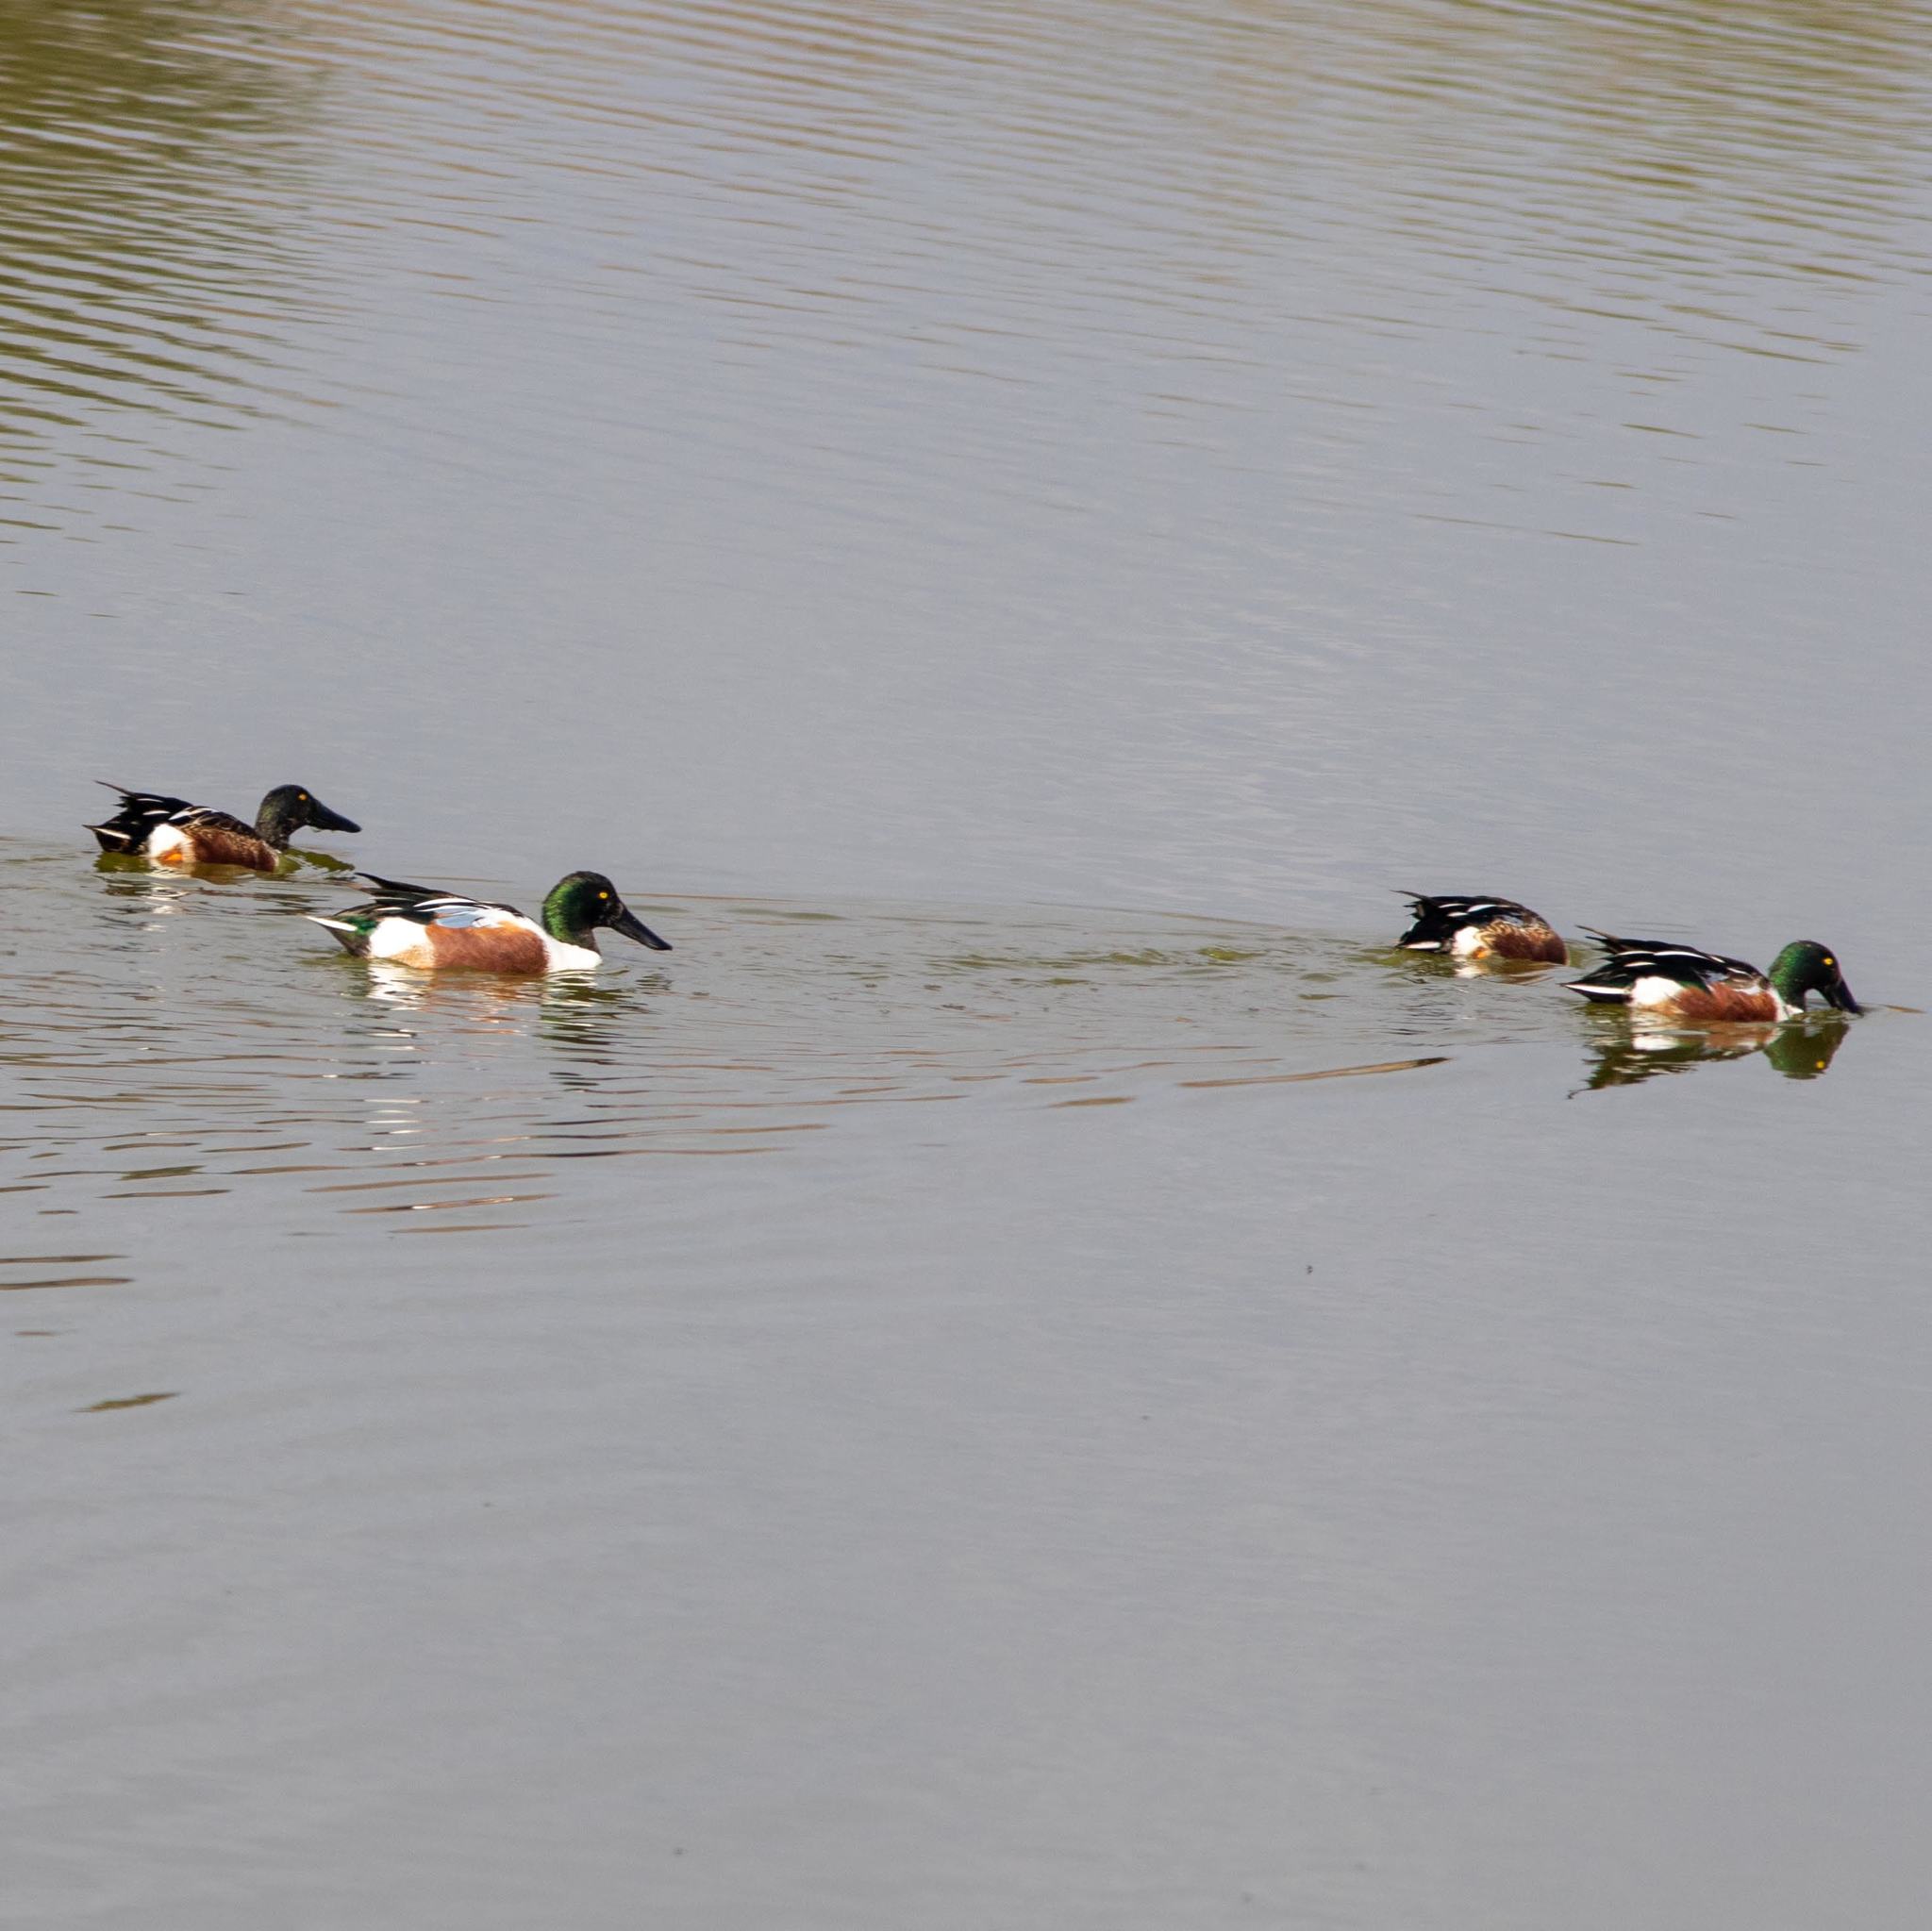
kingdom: Animalia
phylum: Chordata
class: Aves
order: Anseriformes
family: Anatidae
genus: Spatula
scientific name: Spatula clypeata
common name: Northern shoveler
